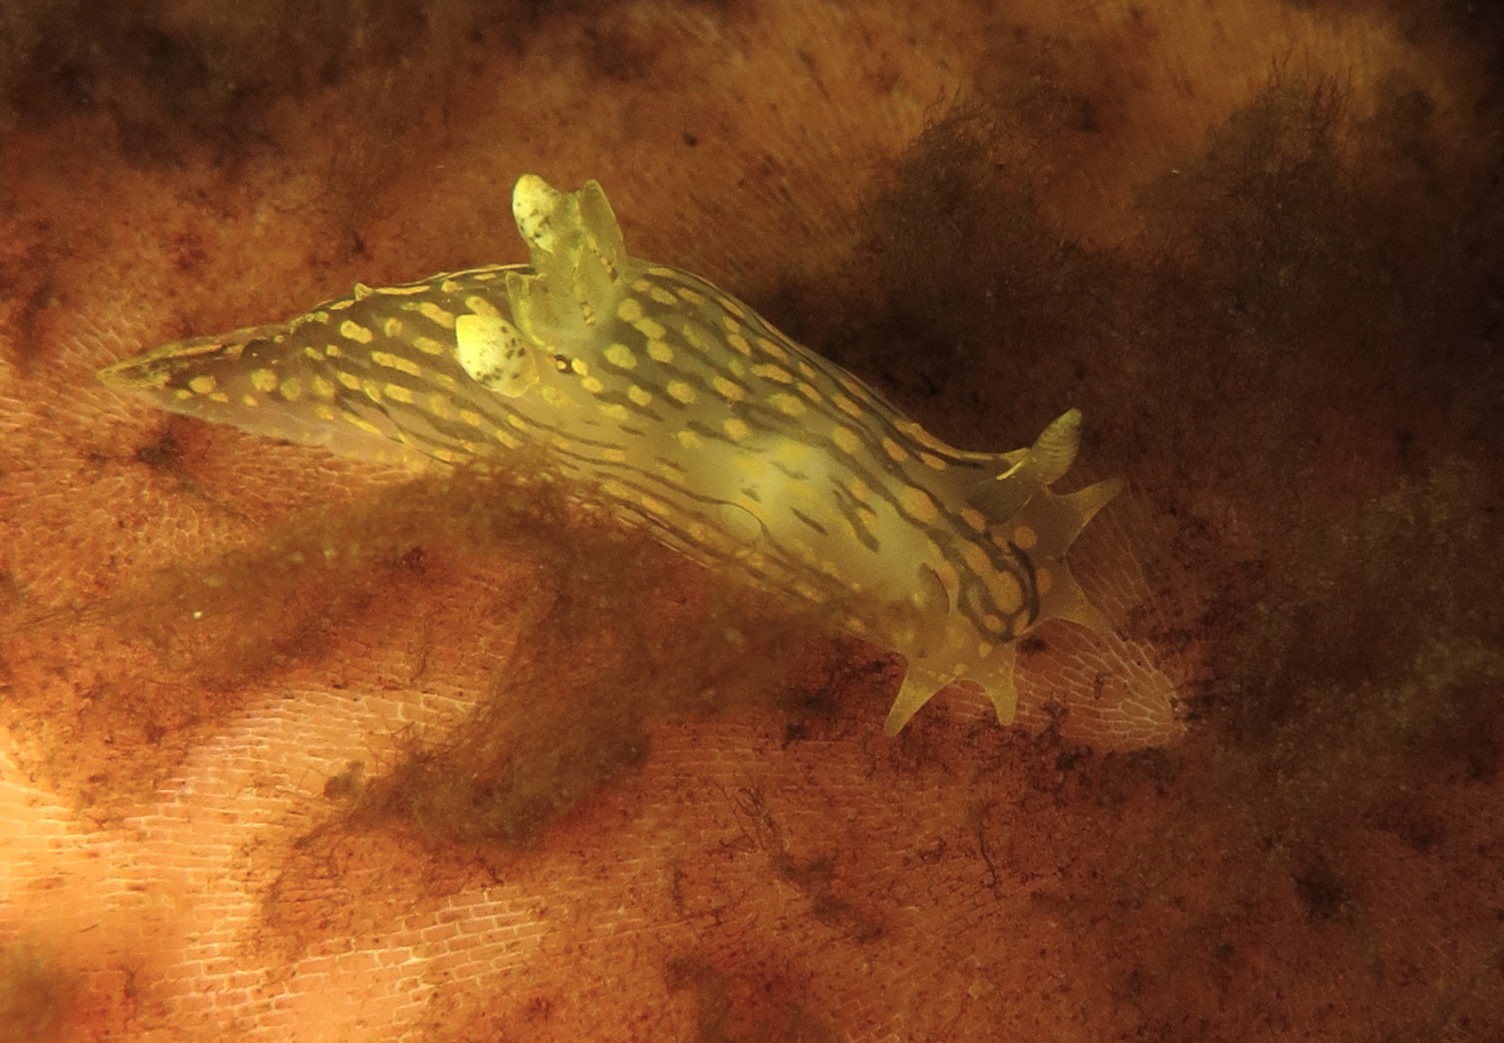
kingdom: Animalia
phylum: Mollusca
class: Gastropoda
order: Nudibranchia
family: Polyceridae
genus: Polycera
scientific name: Polycera quadrilineata
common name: Four-striped polycera
